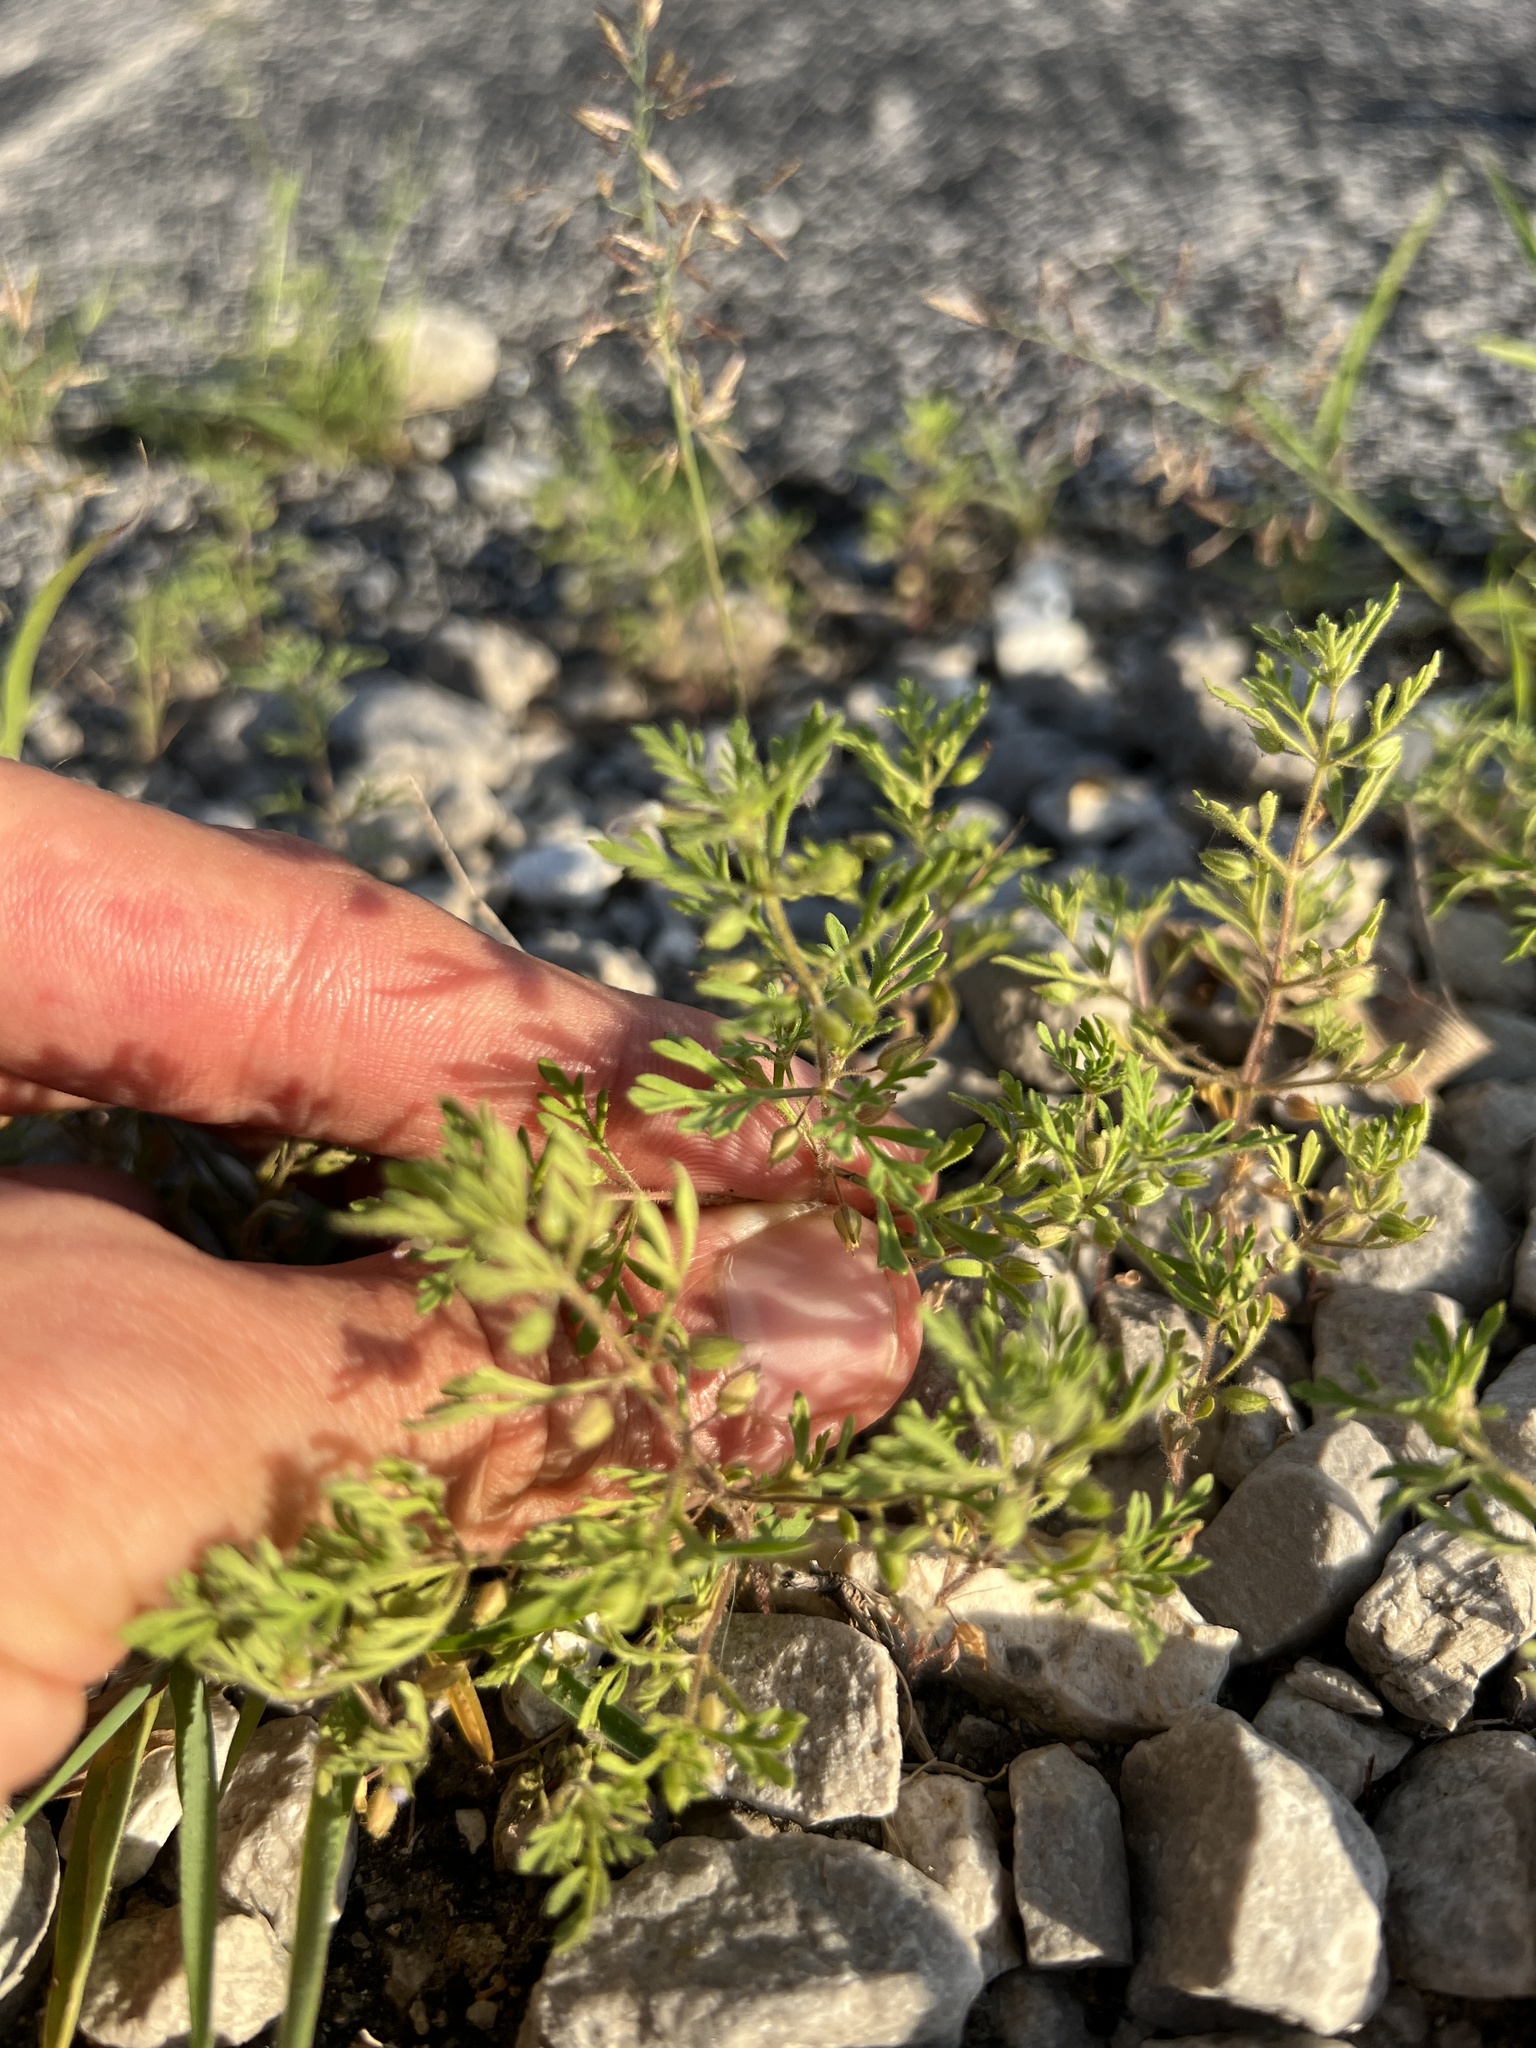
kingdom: Plantae
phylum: Tracheophyta
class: Magnoliopsida
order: Lamiales
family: Plantaginaceae
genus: Leucospora
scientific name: Leucospora multifida
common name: Narrow-leaf paleseed
